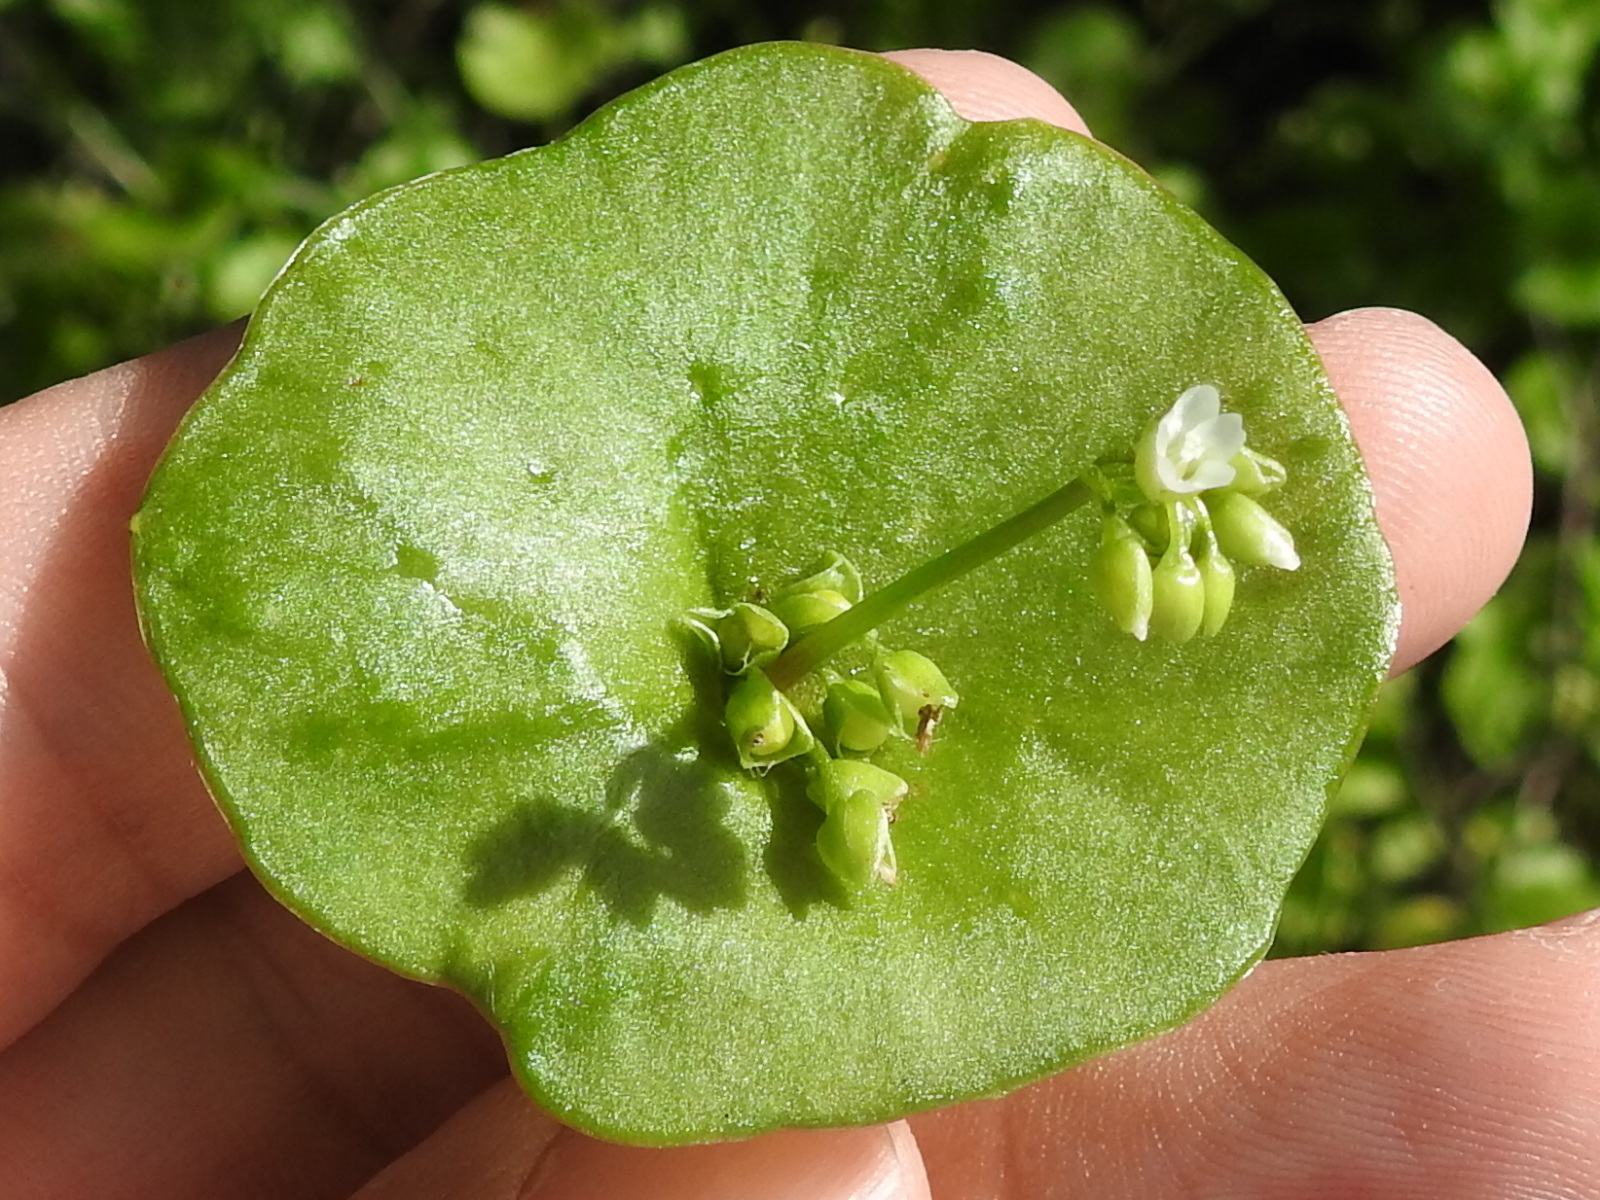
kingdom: Plantae
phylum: Tracheophyta
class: Magnoliopsida
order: Caryophyllales
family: Montiaceae
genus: Claytonia
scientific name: Claytonia perfoliata
